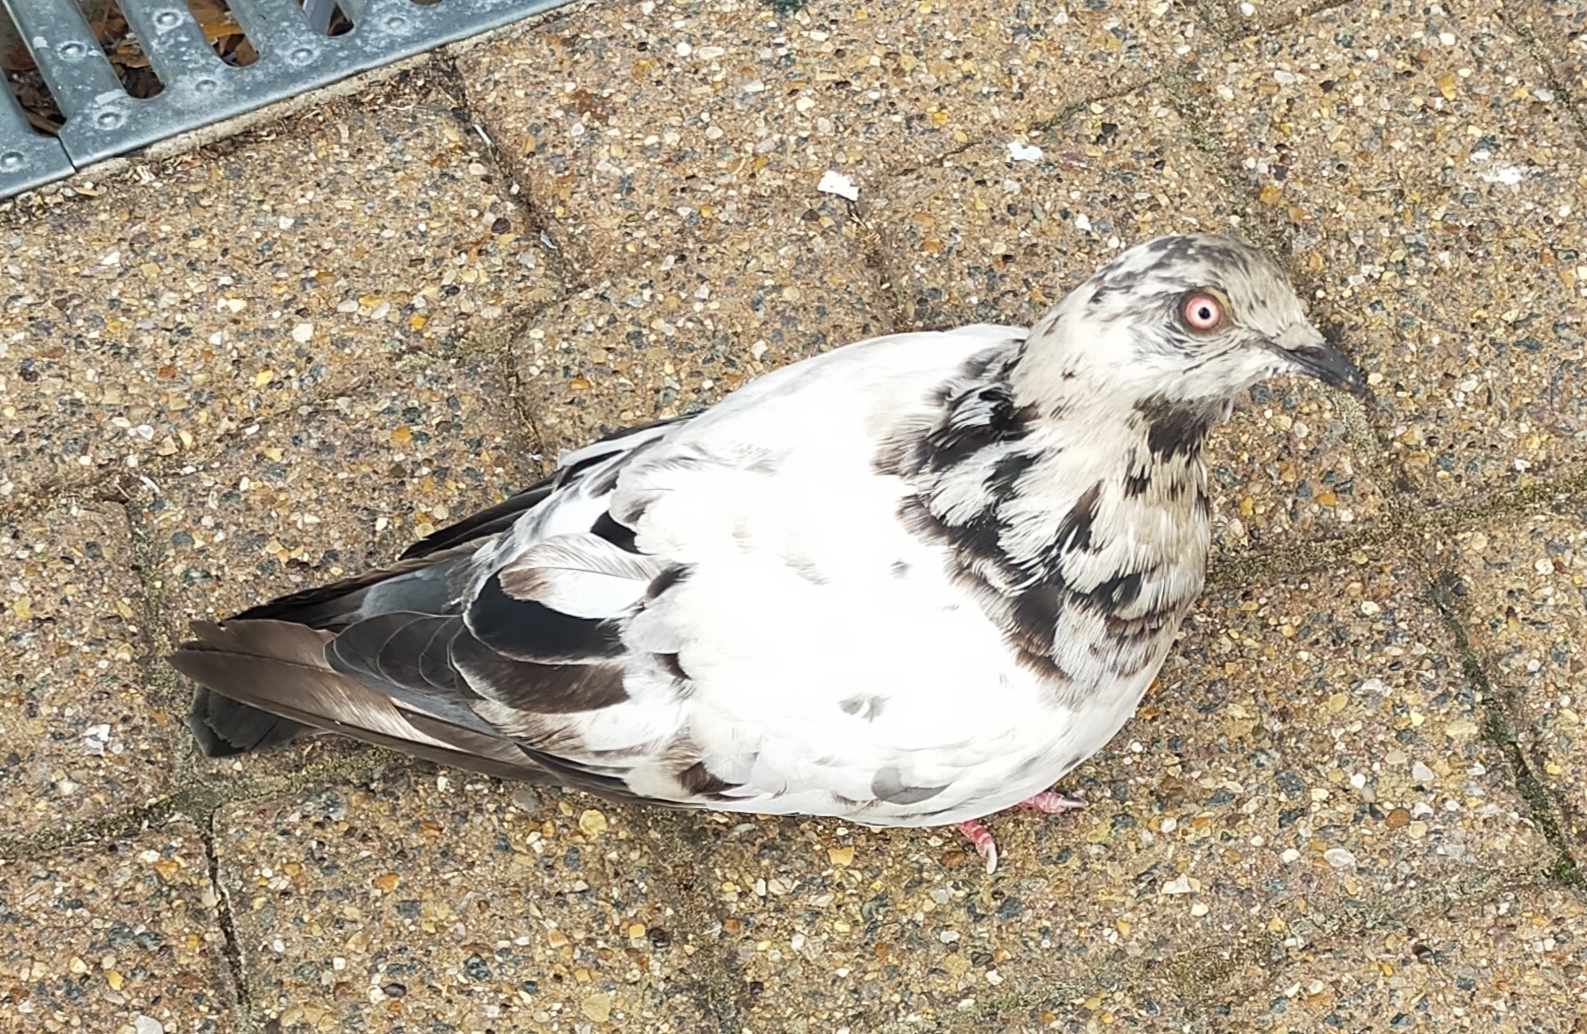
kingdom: Animalia
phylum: Chordata
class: Aves
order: Columbiformes
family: Columbidae
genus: Columba
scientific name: Columba livia
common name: Rock pigeon
